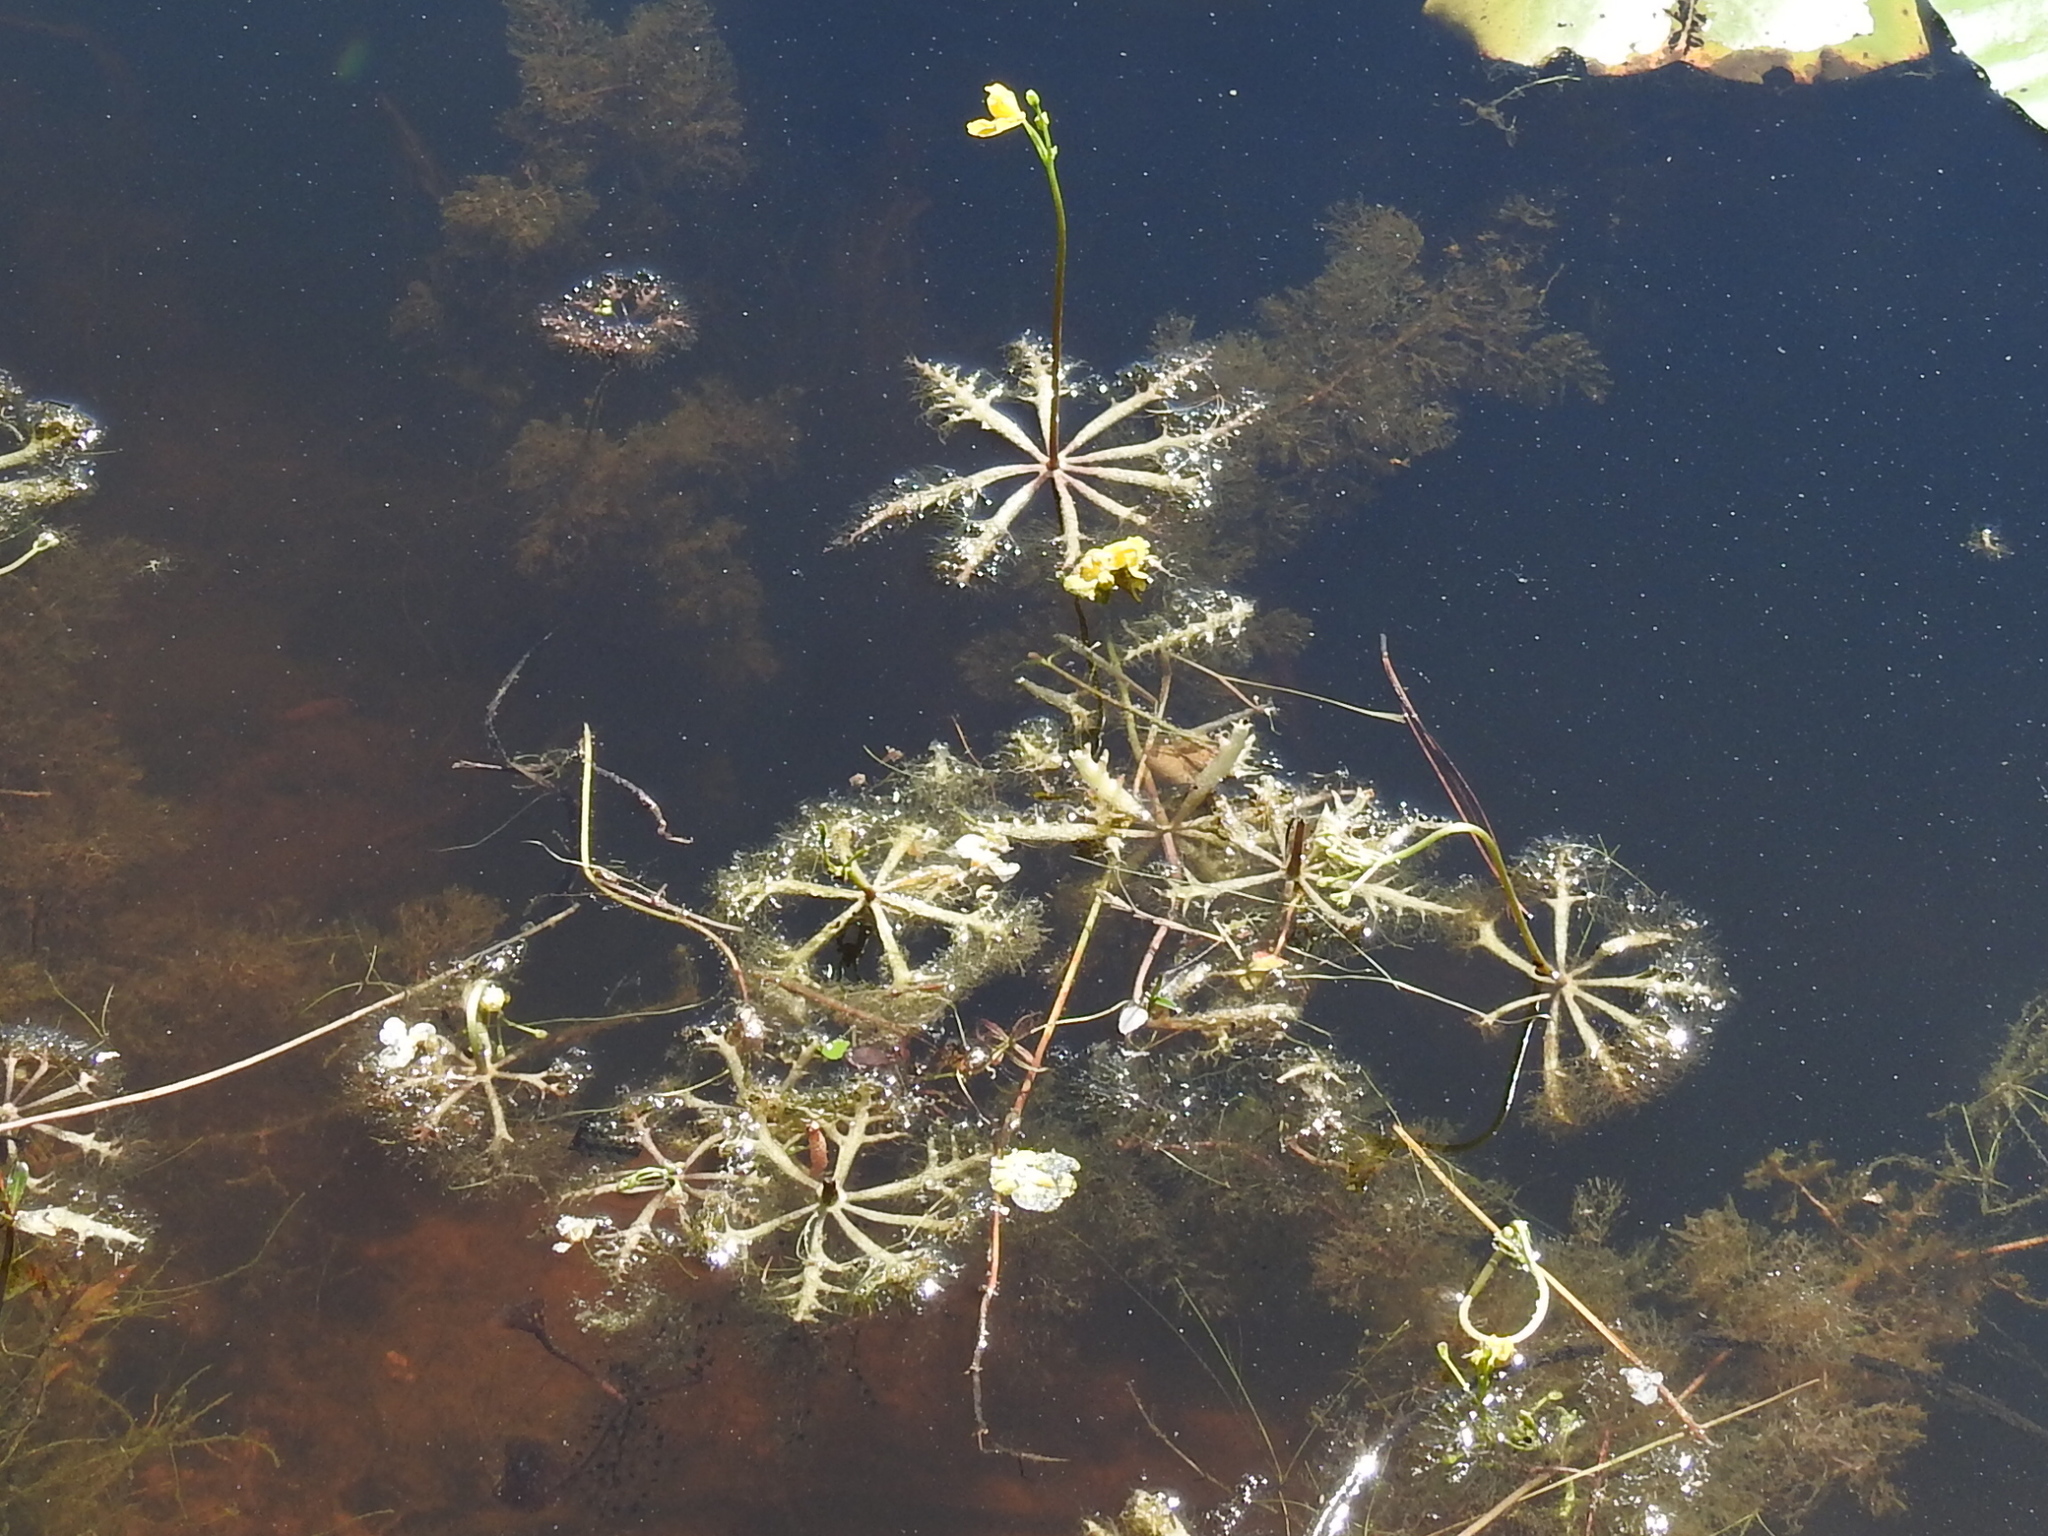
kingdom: Plantae
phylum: Tracheophyta
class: Magnoliopsida
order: Lamiales
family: Lentibulariaceae
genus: Utricularia
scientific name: Utricularia inflata
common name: Floating bladderwort
